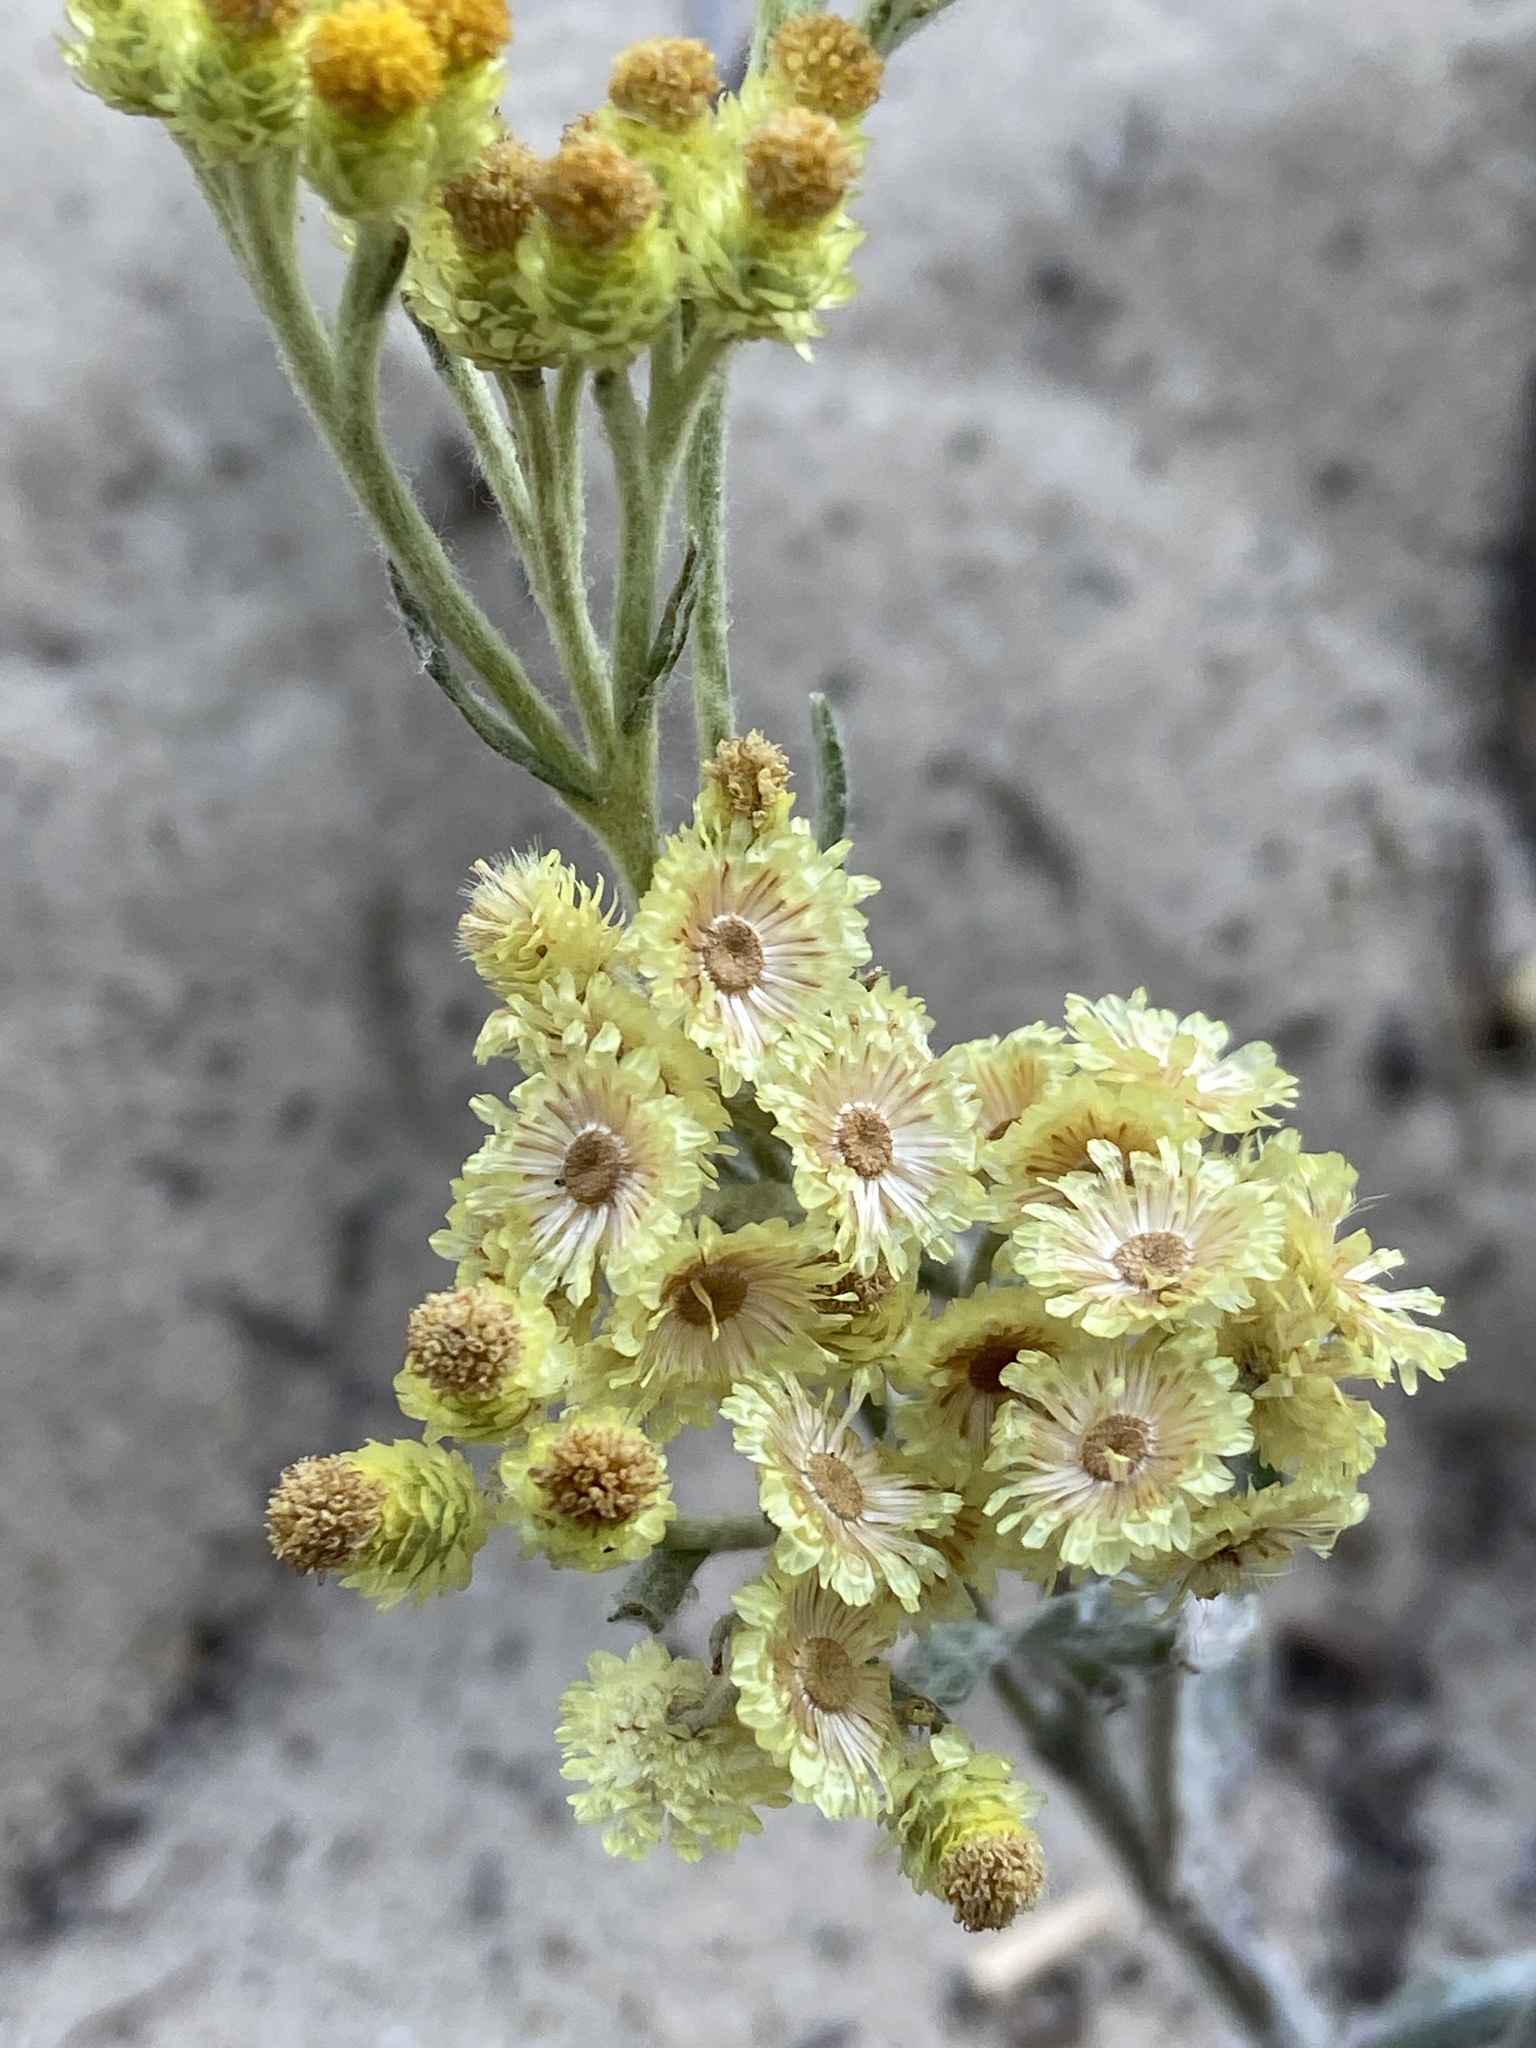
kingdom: Plantae
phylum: Tracheophyta
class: Magnoliopsida
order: Asterales
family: Asteraceae
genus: Helichrysum
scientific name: Helichrysum arenarium
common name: Strawflower
